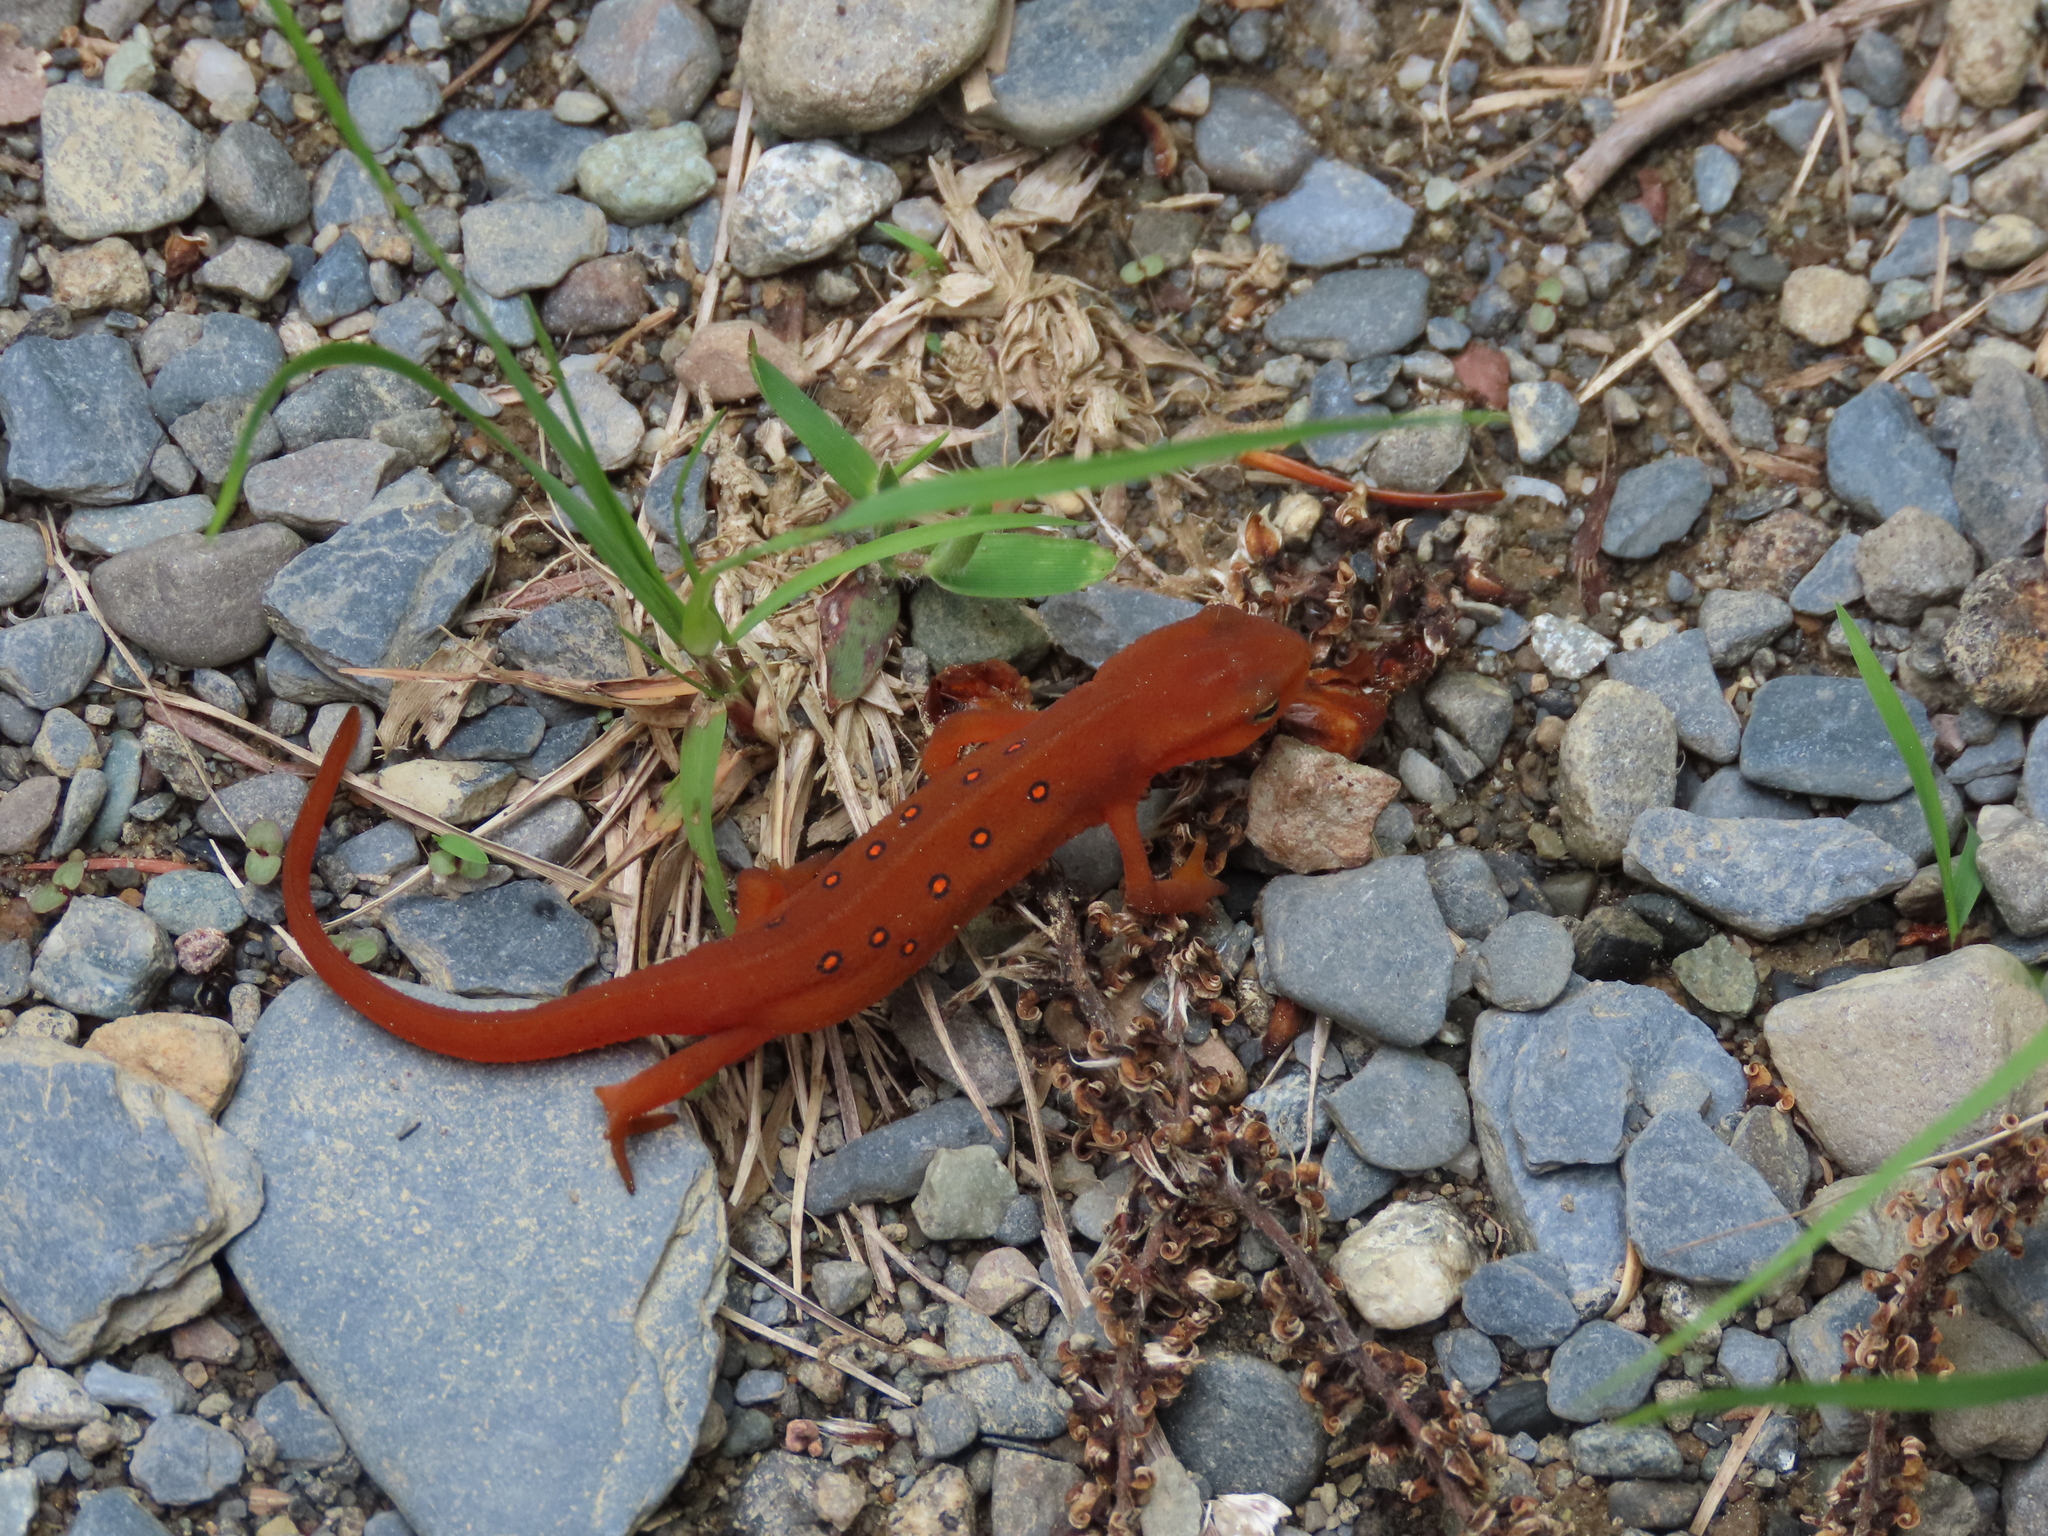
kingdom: Animalia
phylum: Chordata
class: Amphibia
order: Caudata
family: Salamandridae
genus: Notophthalmus
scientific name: Notophthalmus viridescens
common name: Eastern newt
